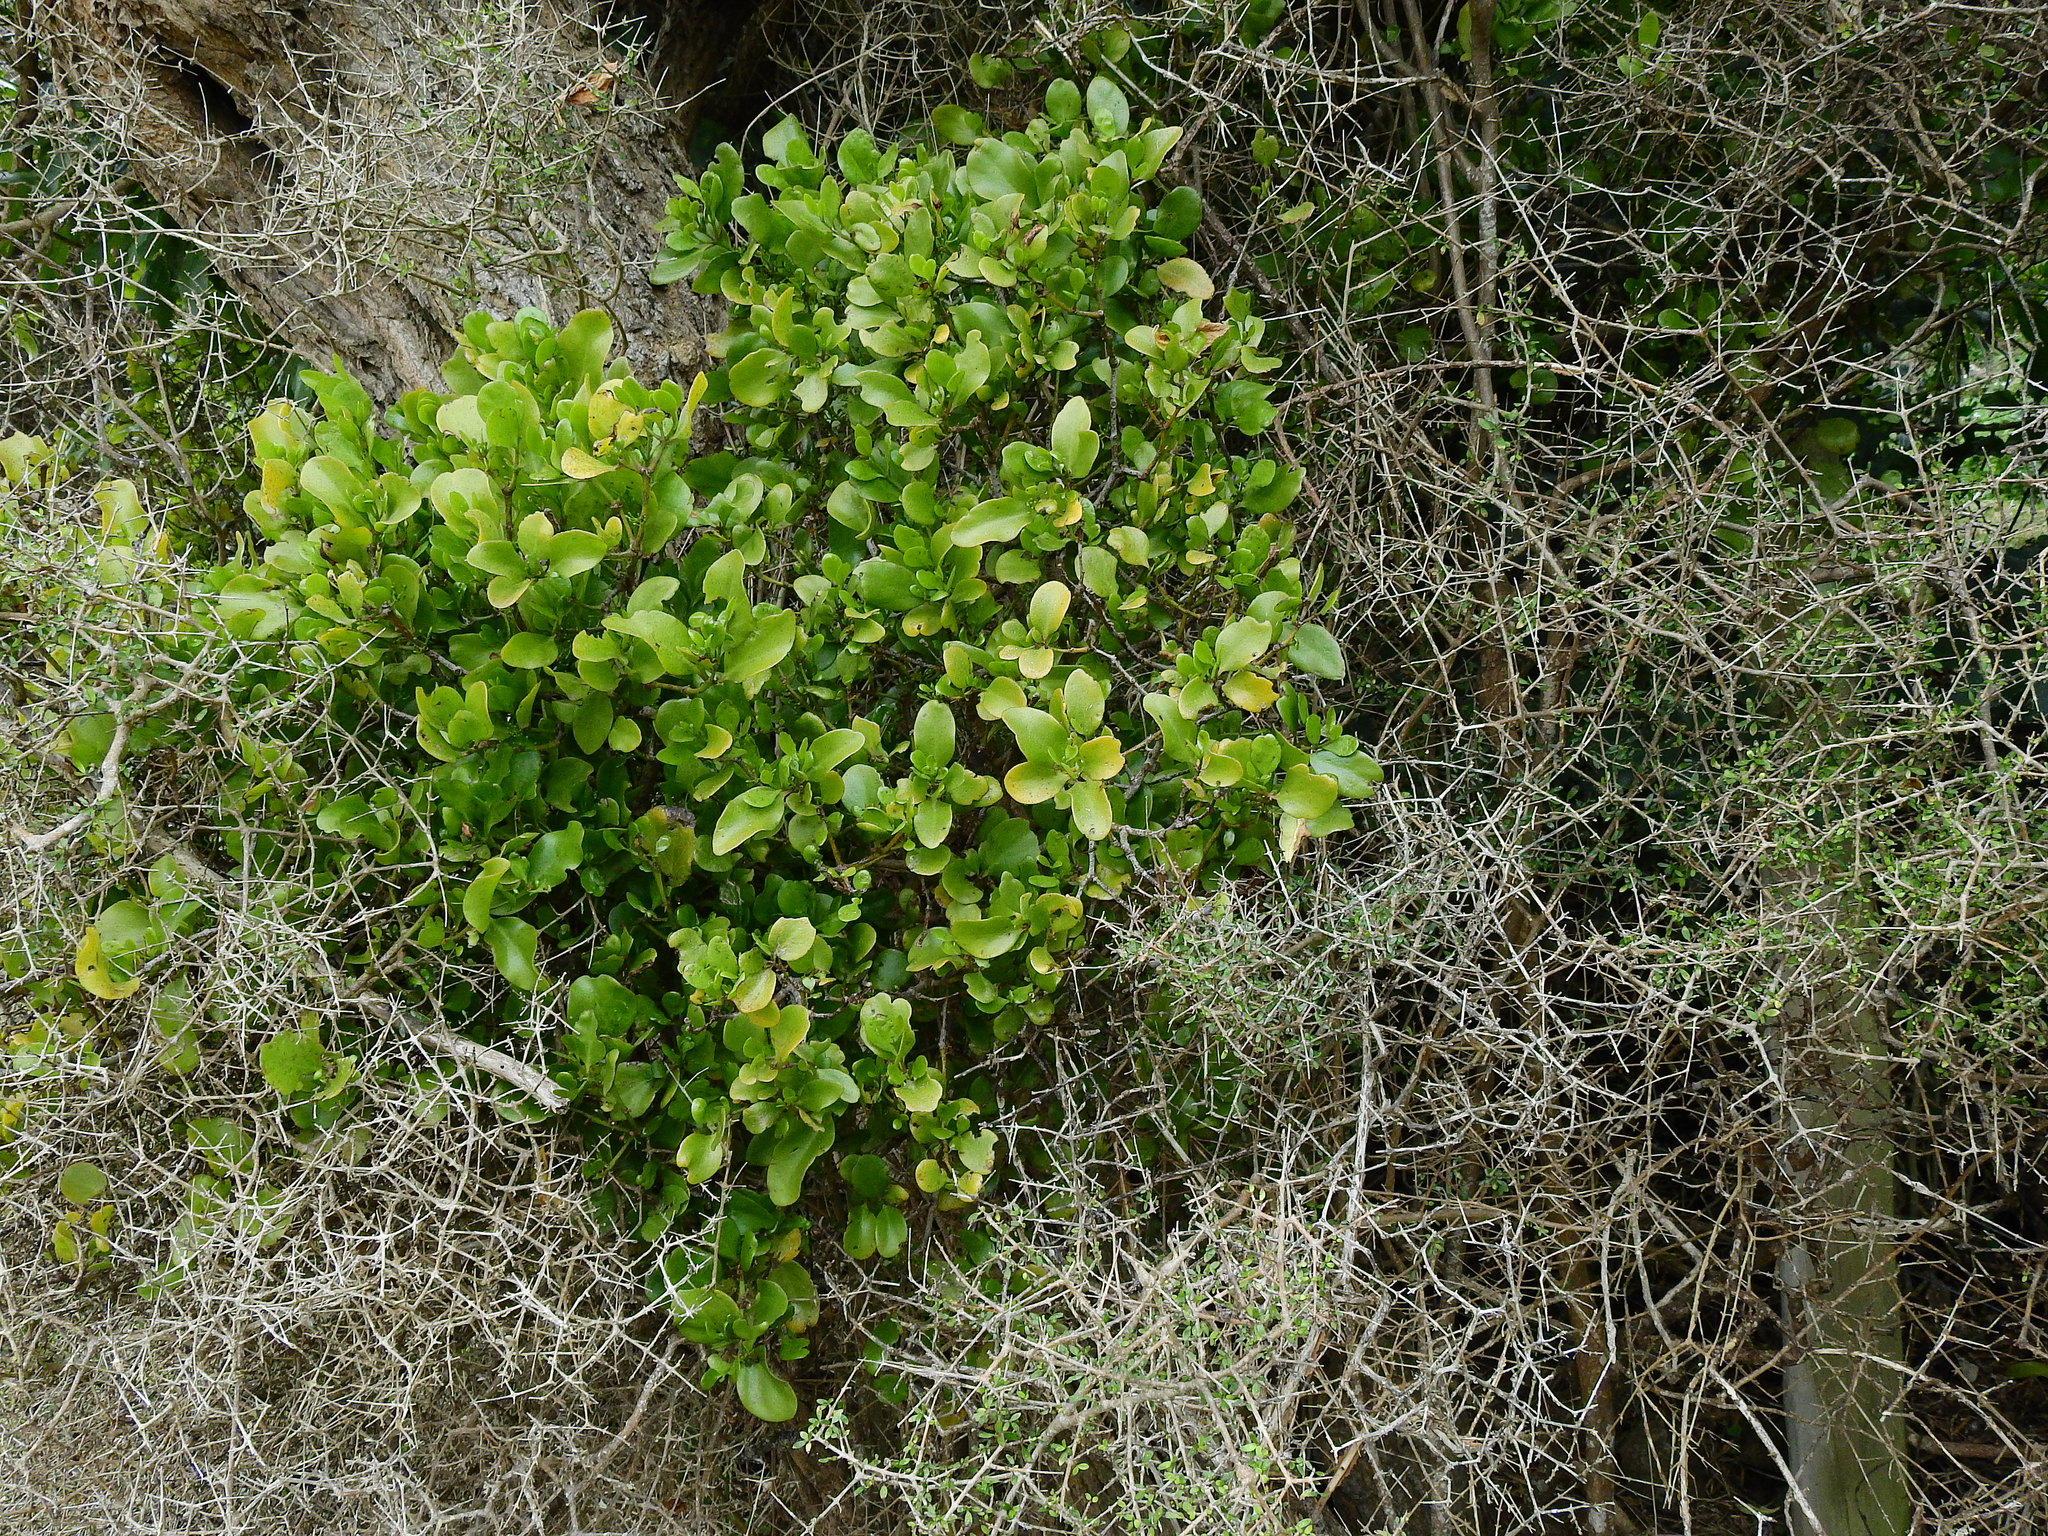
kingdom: Plantae
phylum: Tracheophyta
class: Magnoliopsida
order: Santalales
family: Loranthaceae
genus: Ileostylus
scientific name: Ileostylus micranthus
